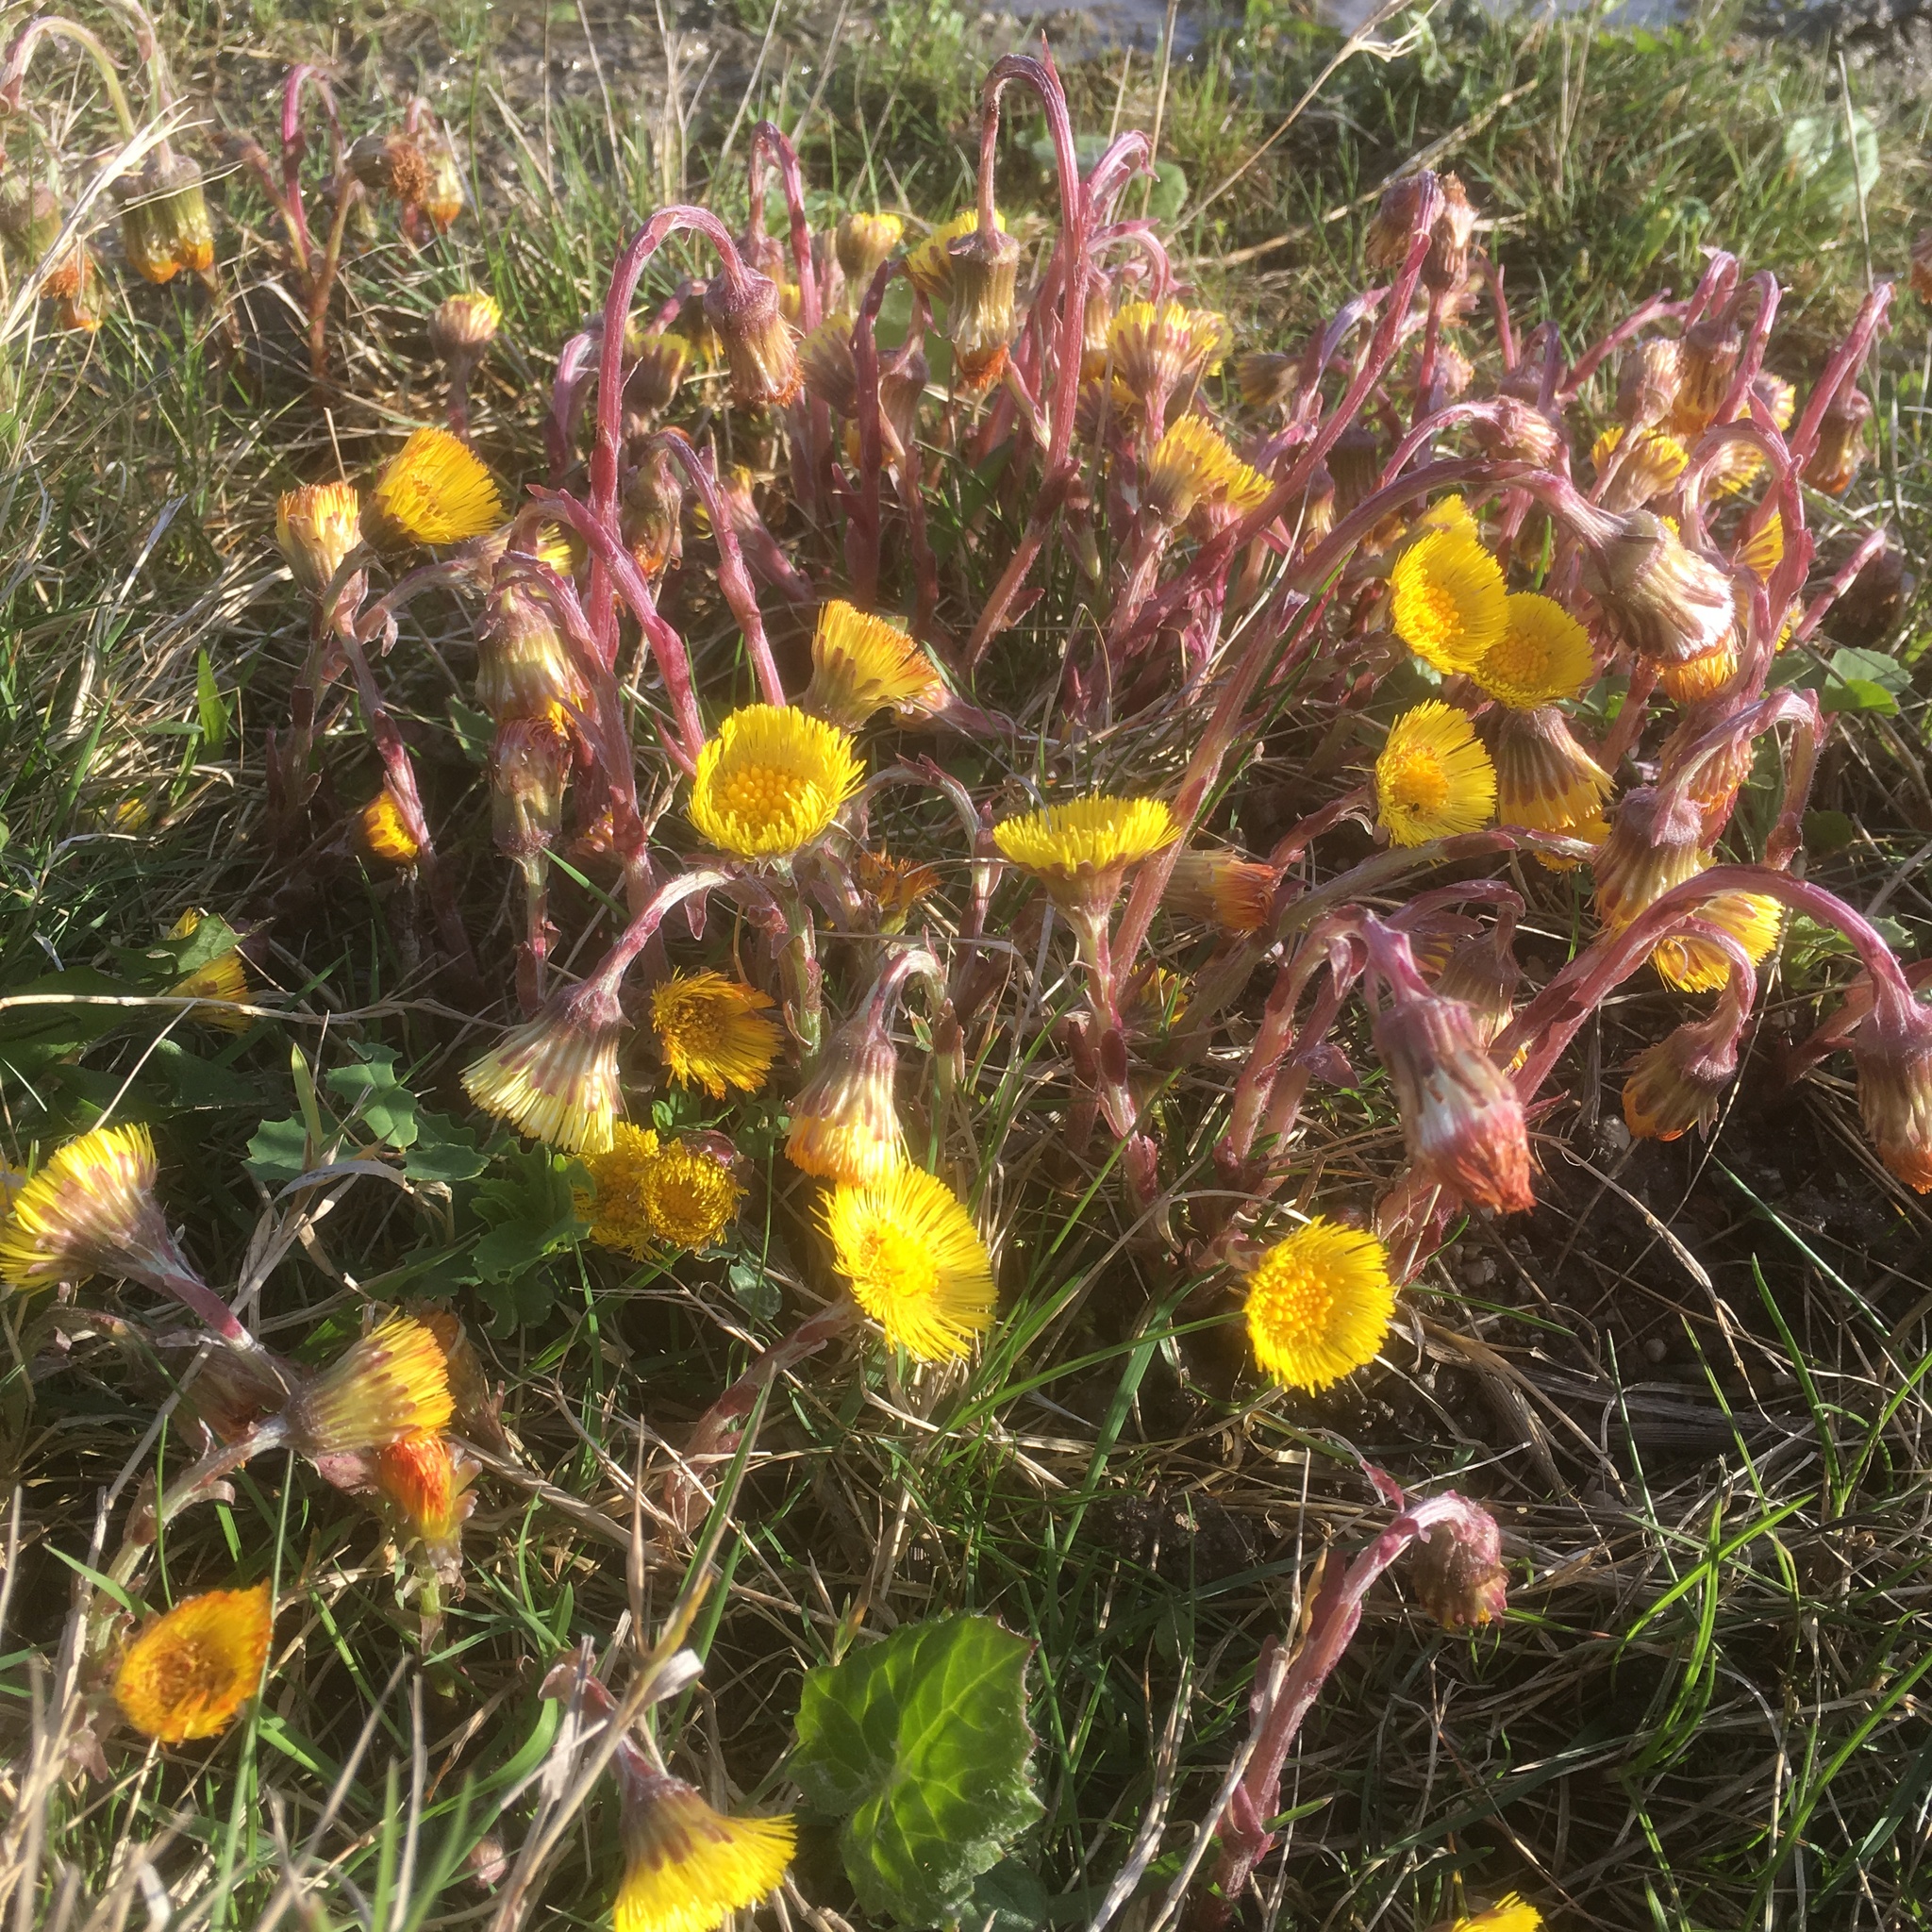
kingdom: Plantae
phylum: Tracheophyta
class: Magnoliopsida
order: Asterales
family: Asteraceae
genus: Tussilago
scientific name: Tussilago farfara
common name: Coltsfoot
